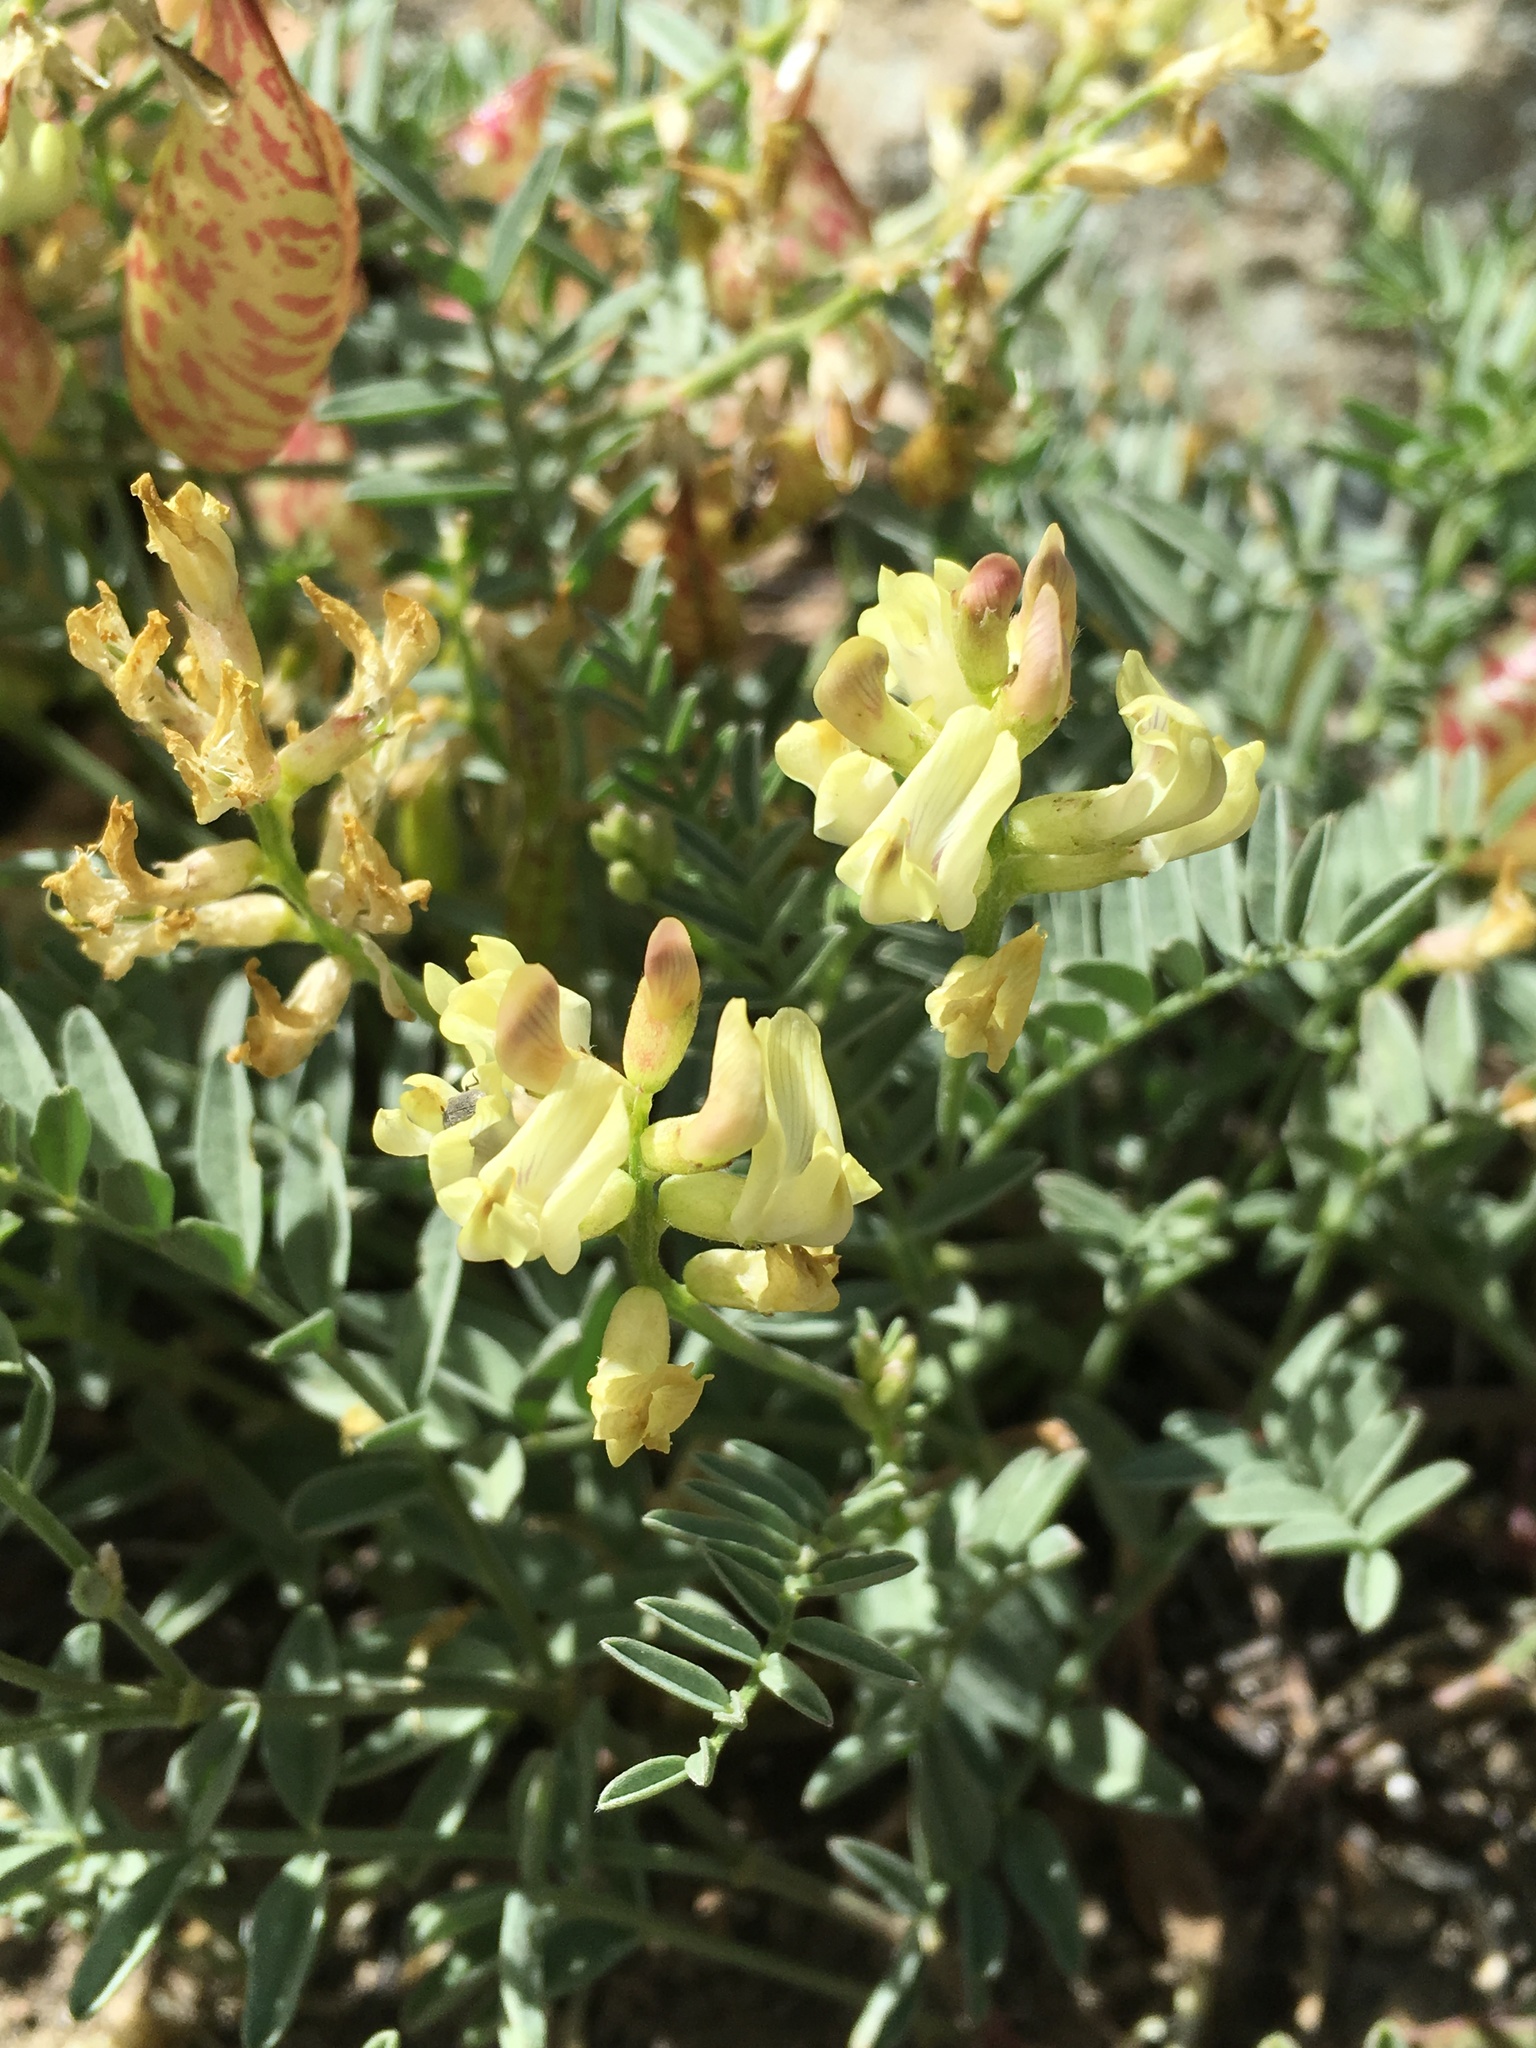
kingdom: Plantae
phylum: Tracheophyta
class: Magnoliopsida
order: Fabales
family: Fabaceae
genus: Astragalus
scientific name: Astragalus whitneyi
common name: Balloonpod milkvetch
